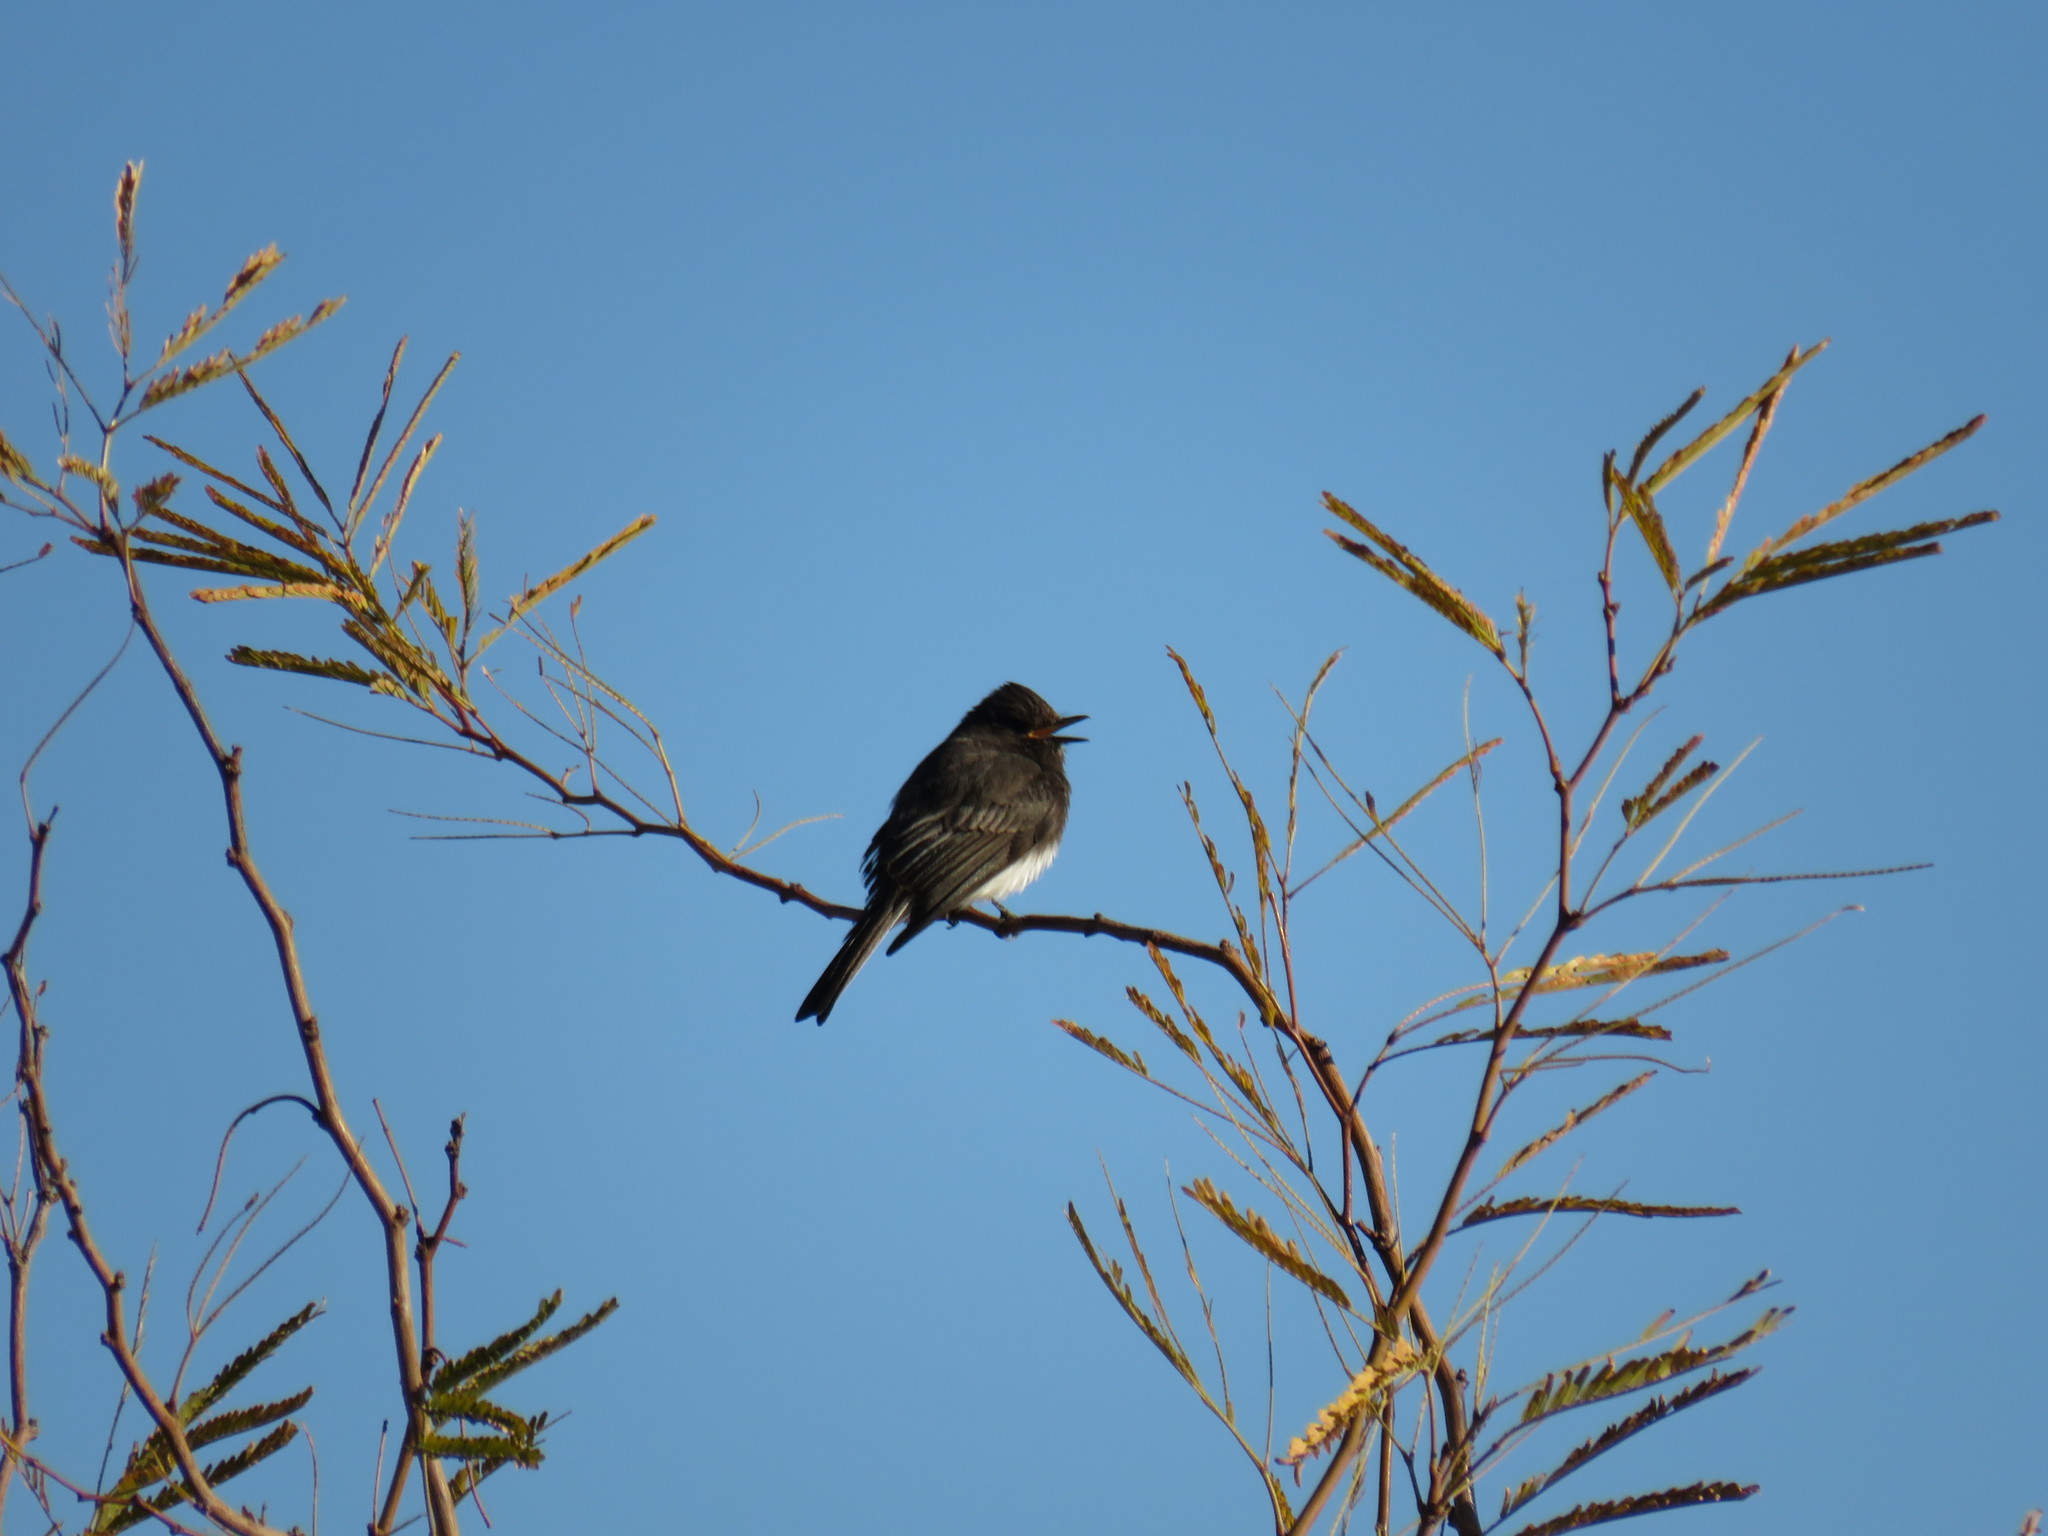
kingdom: Animalia
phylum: Chordata
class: Aves
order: Passeriformes
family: Tyrannidae
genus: Sayornis
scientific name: Sayornis nigricans
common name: Black phoebe
